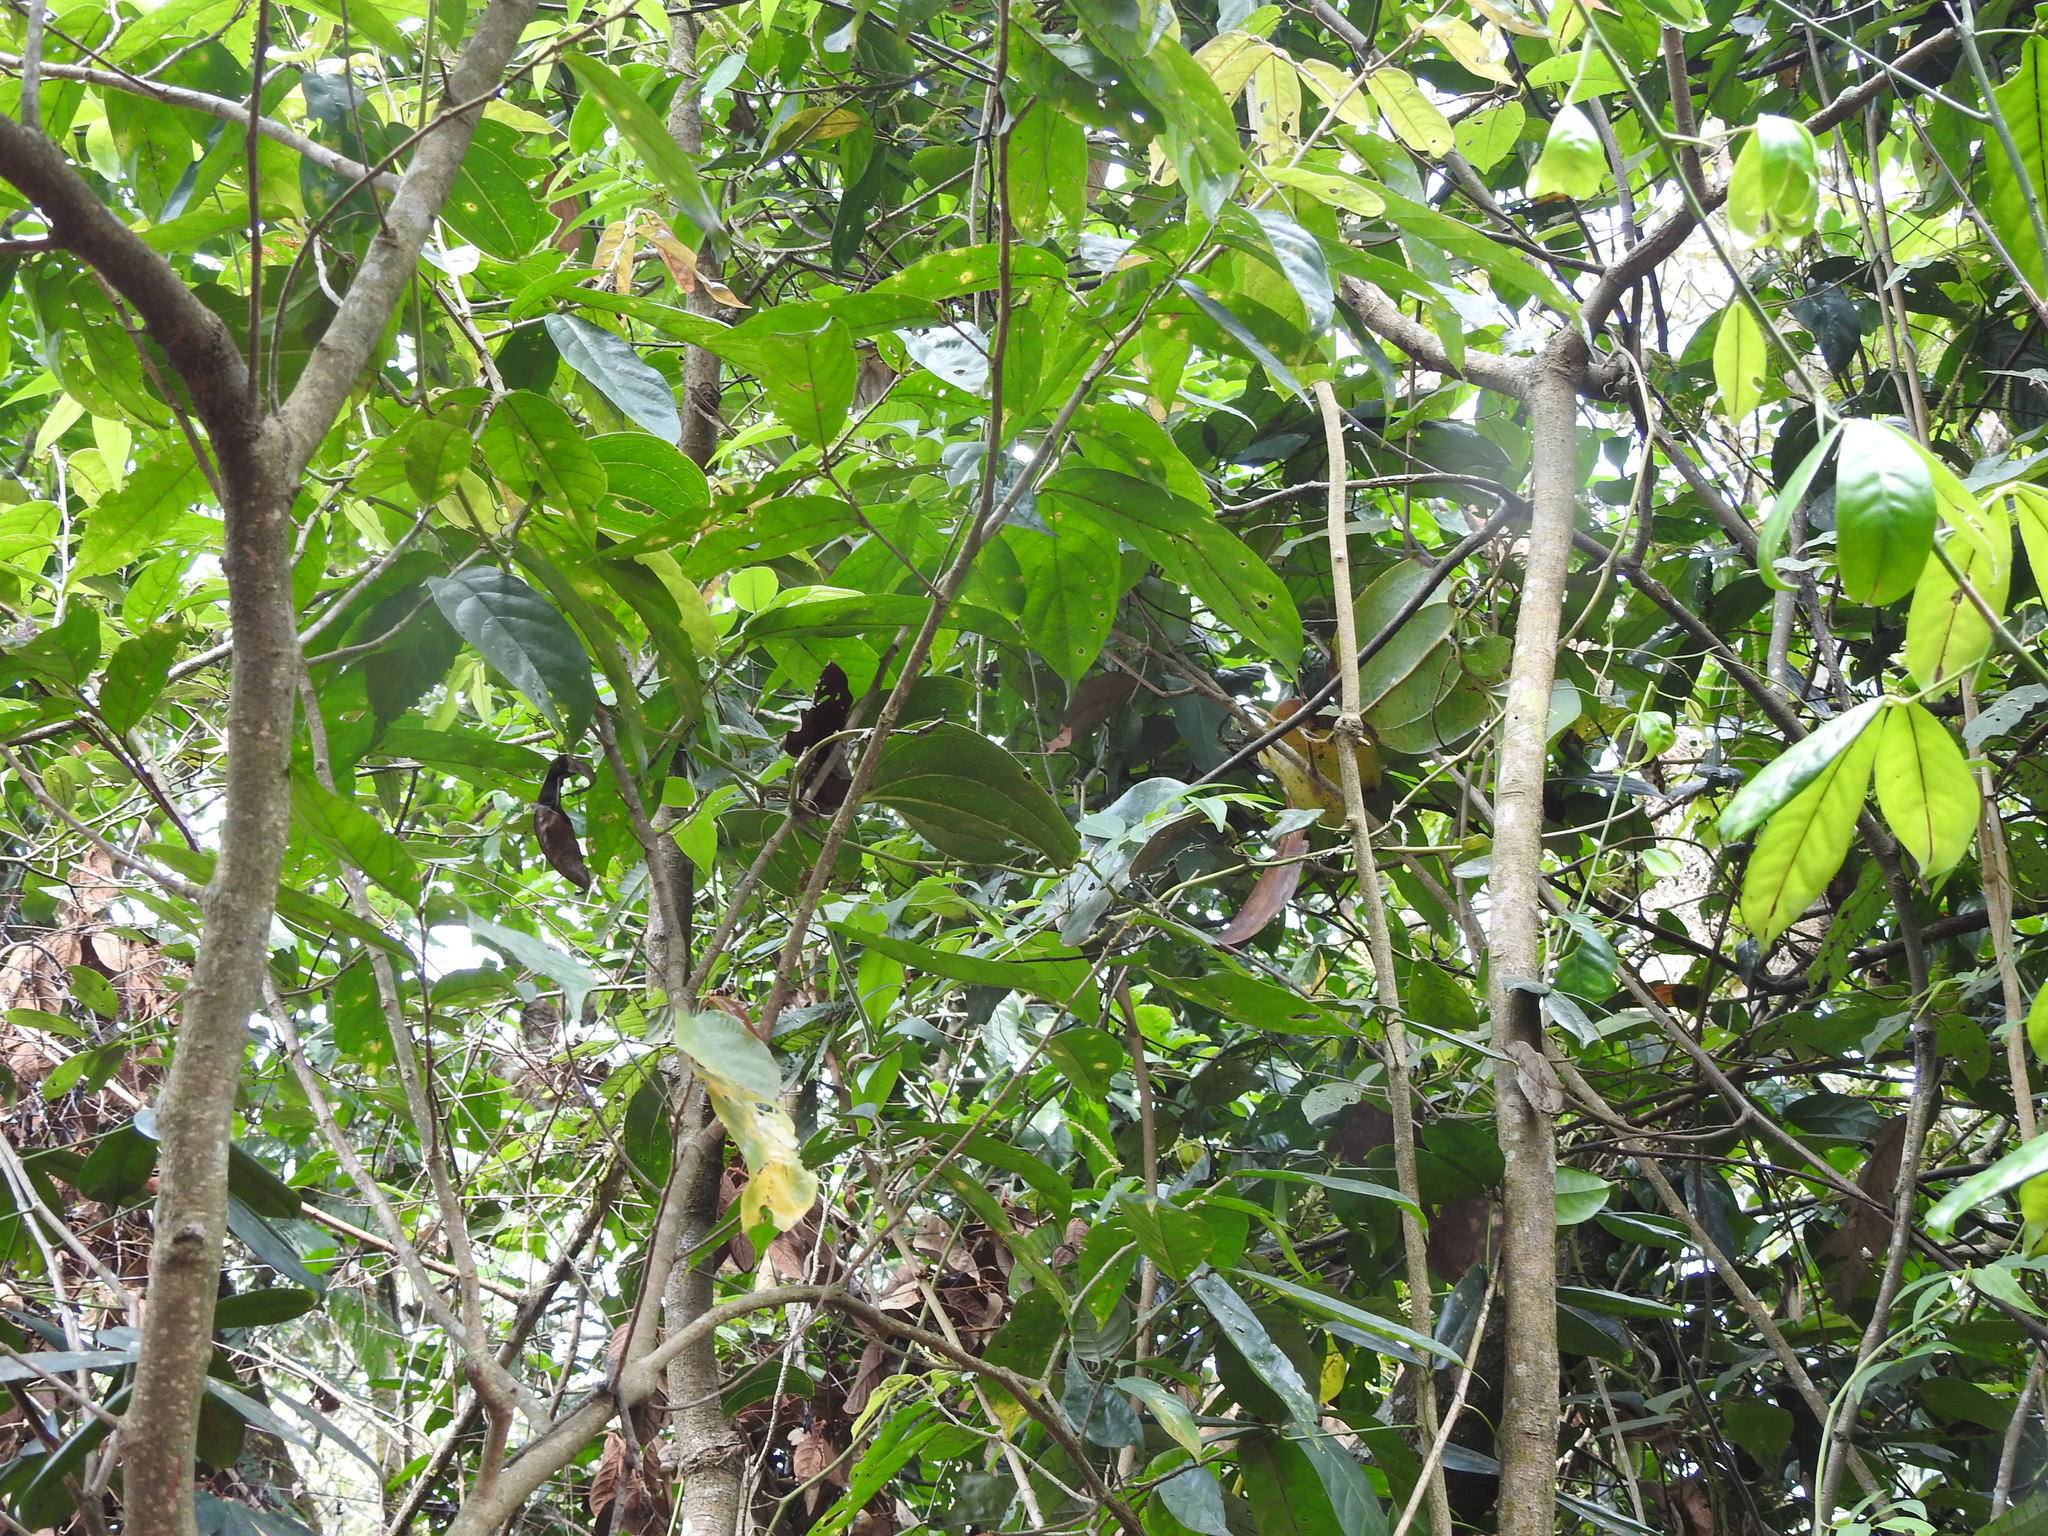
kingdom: Animalia
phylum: Arthropoda
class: Insecta
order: Lepidoptera
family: Nymphalidae
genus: Kallima
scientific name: Kallima horsfieldii
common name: Sahyadri blue oakleaf
